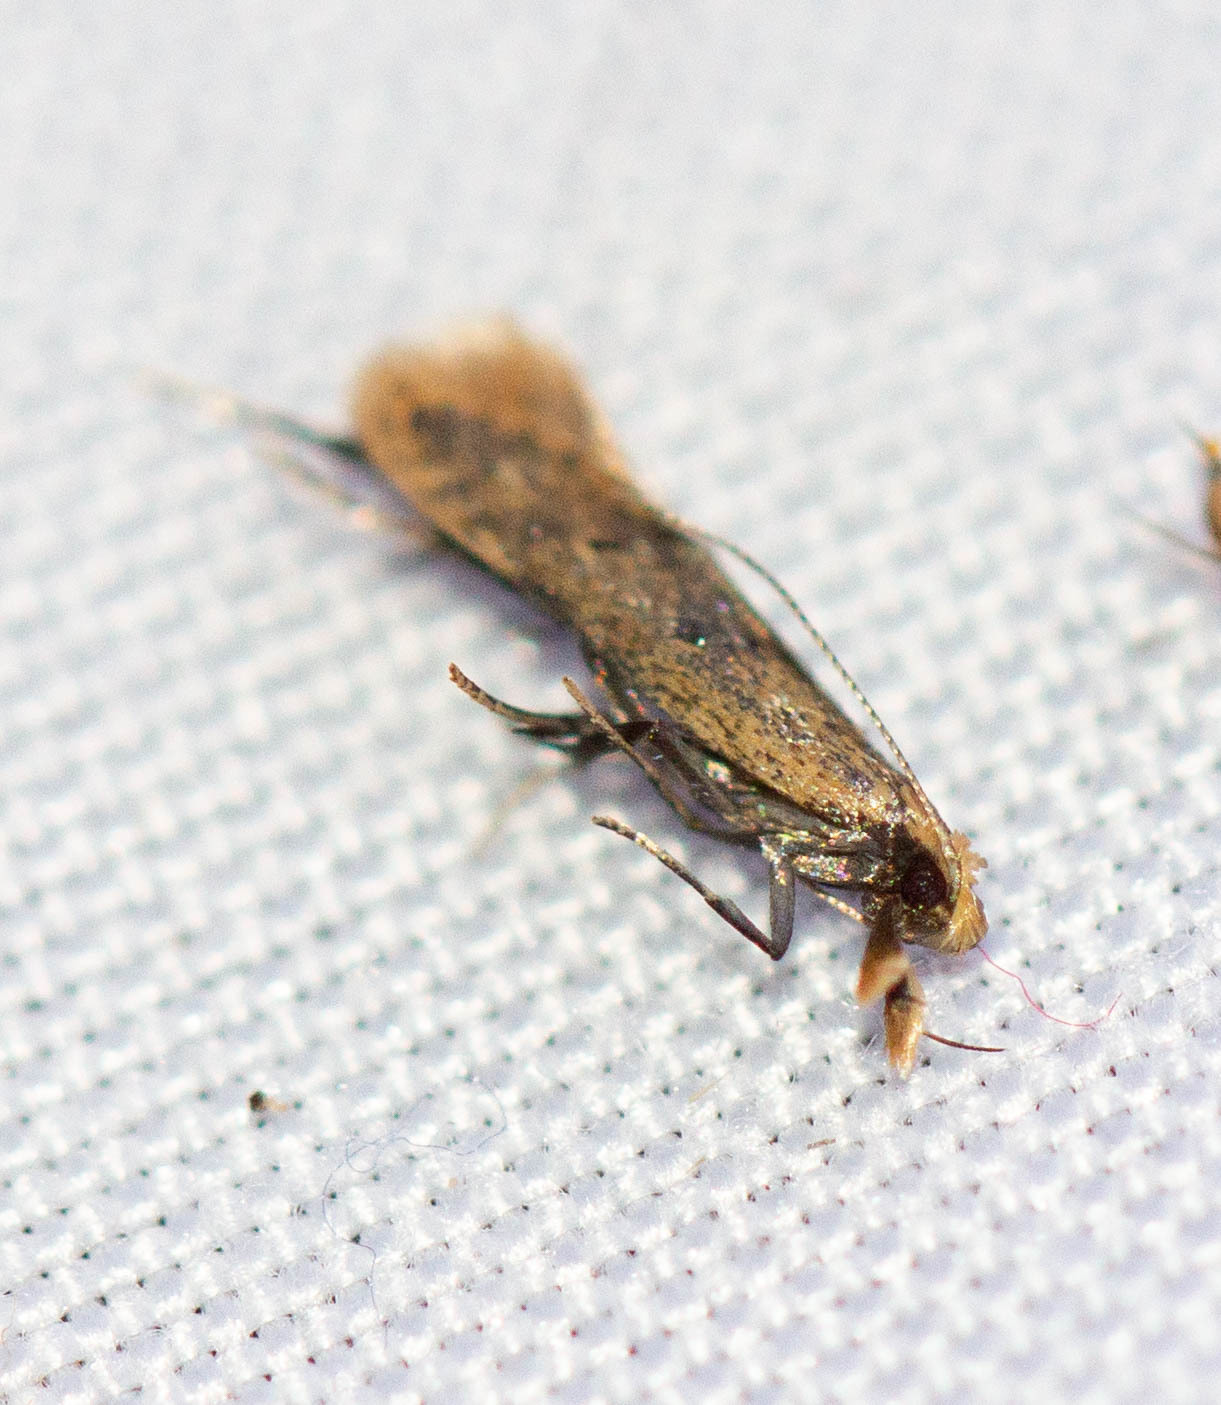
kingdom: Animalia
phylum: Arthropoda
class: Insecta
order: Lepidoptera
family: Gelechiidae
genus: Dichomeris
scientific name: Dichomeris punctipennella
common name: Many-spotted dichomeris moth
